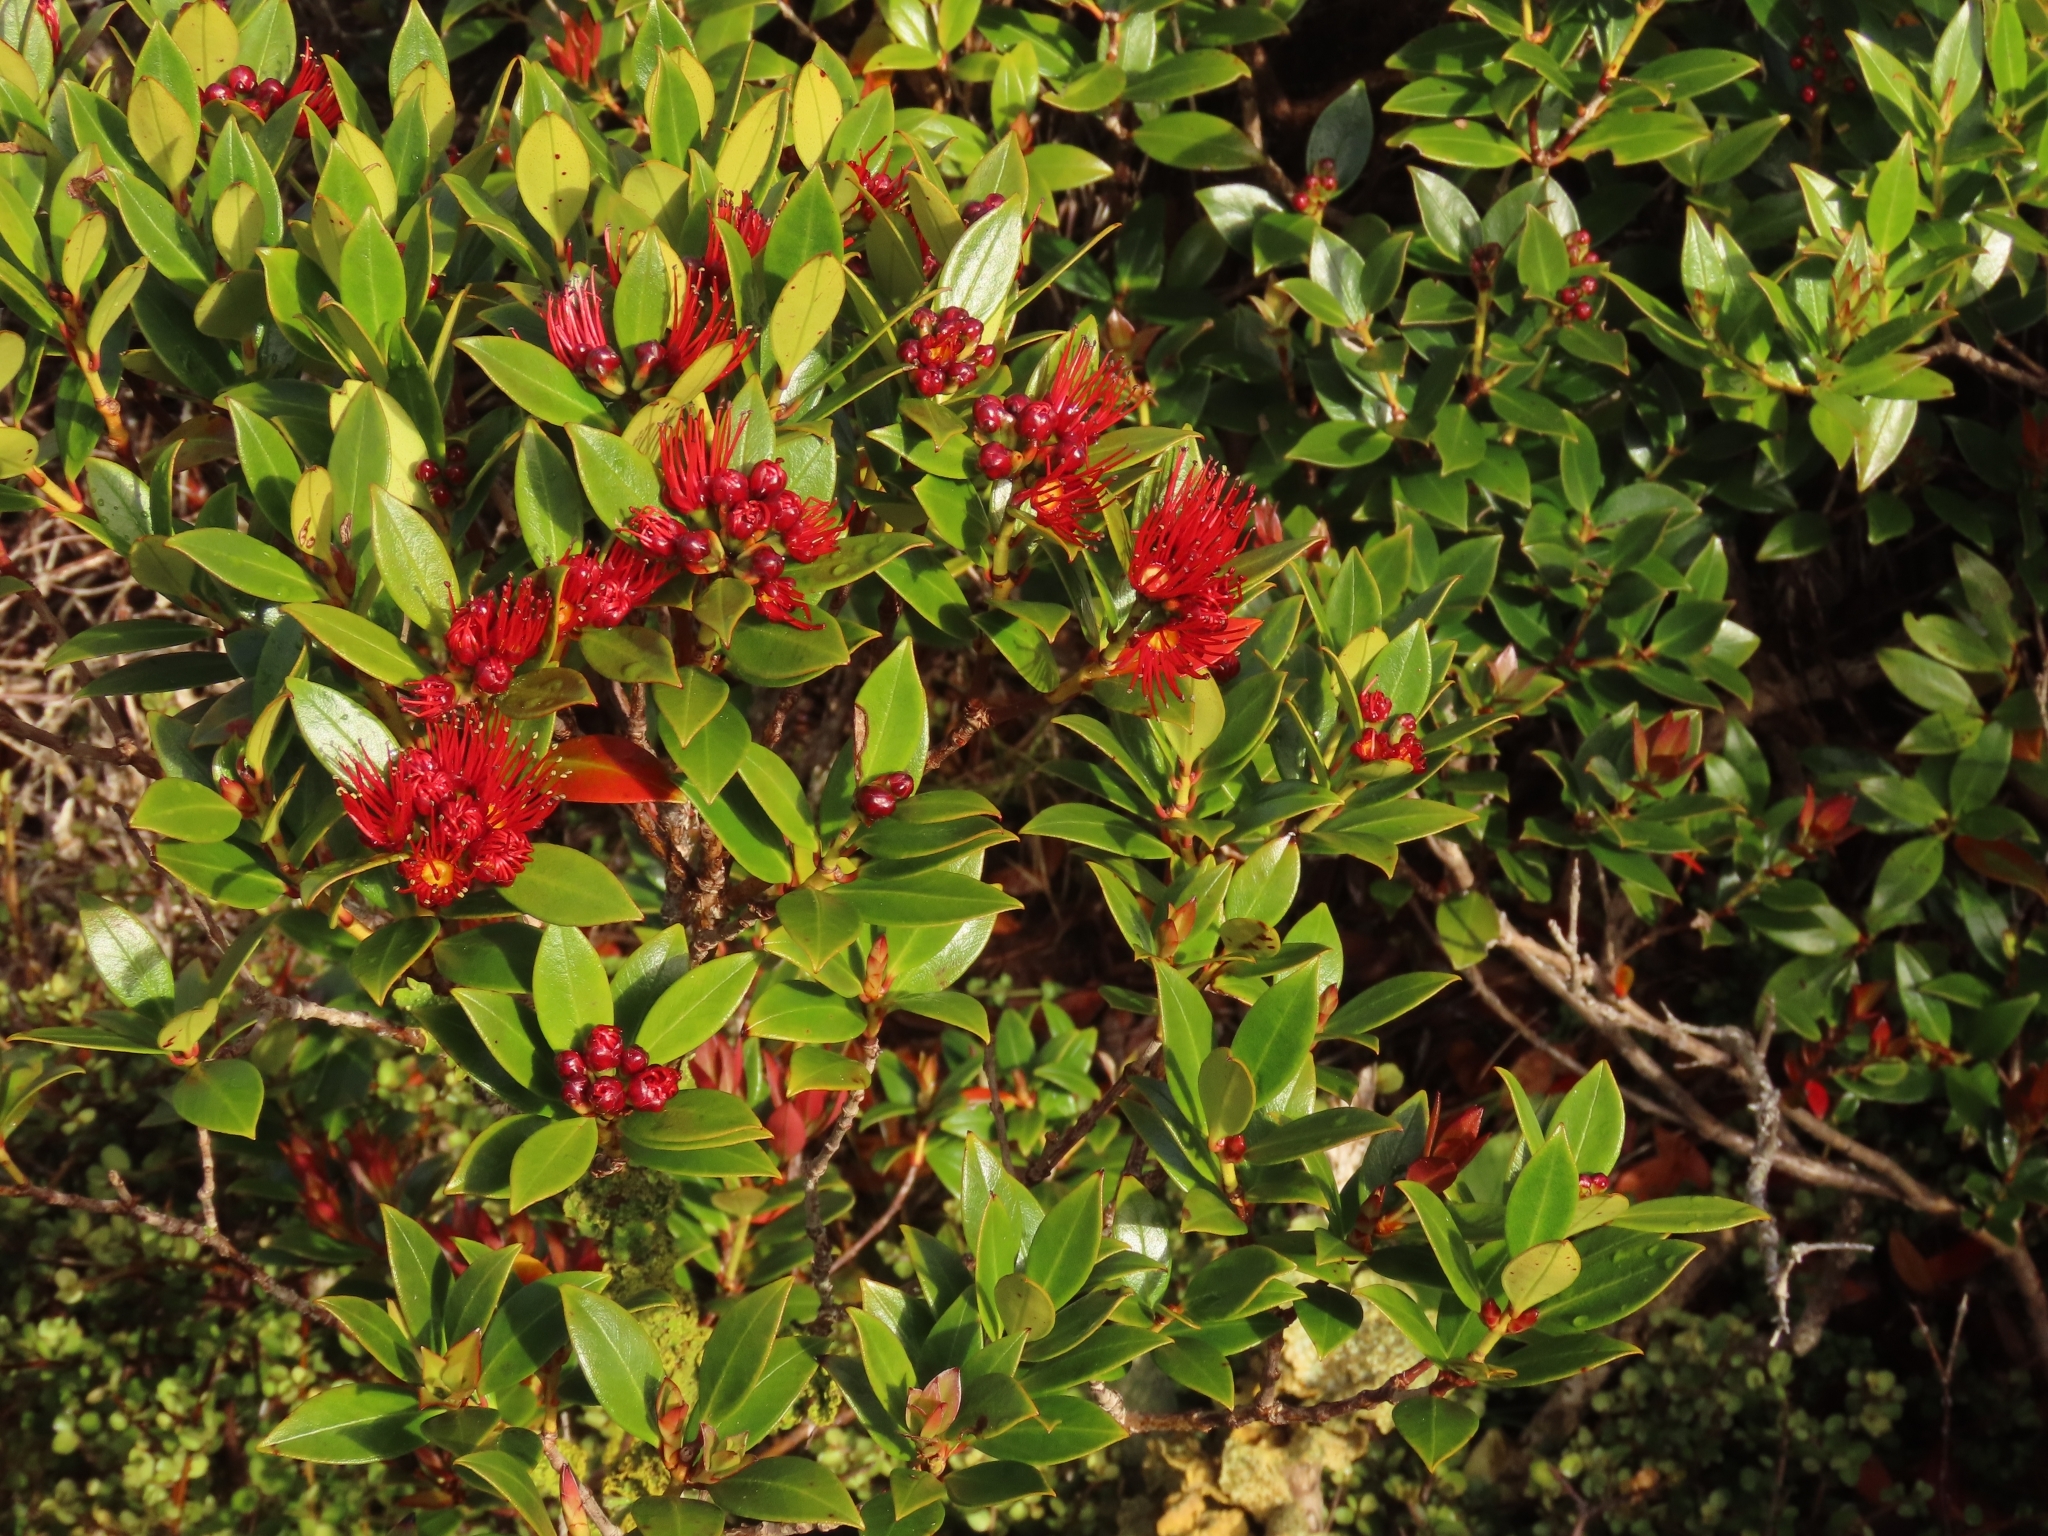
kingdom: Plantae
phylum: Tracheophyta
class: Magnoliopsida
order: Myrtales
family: Myrtaceae
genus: Metrosideros
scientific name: Metrosideros umbellata
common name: Southern rata
